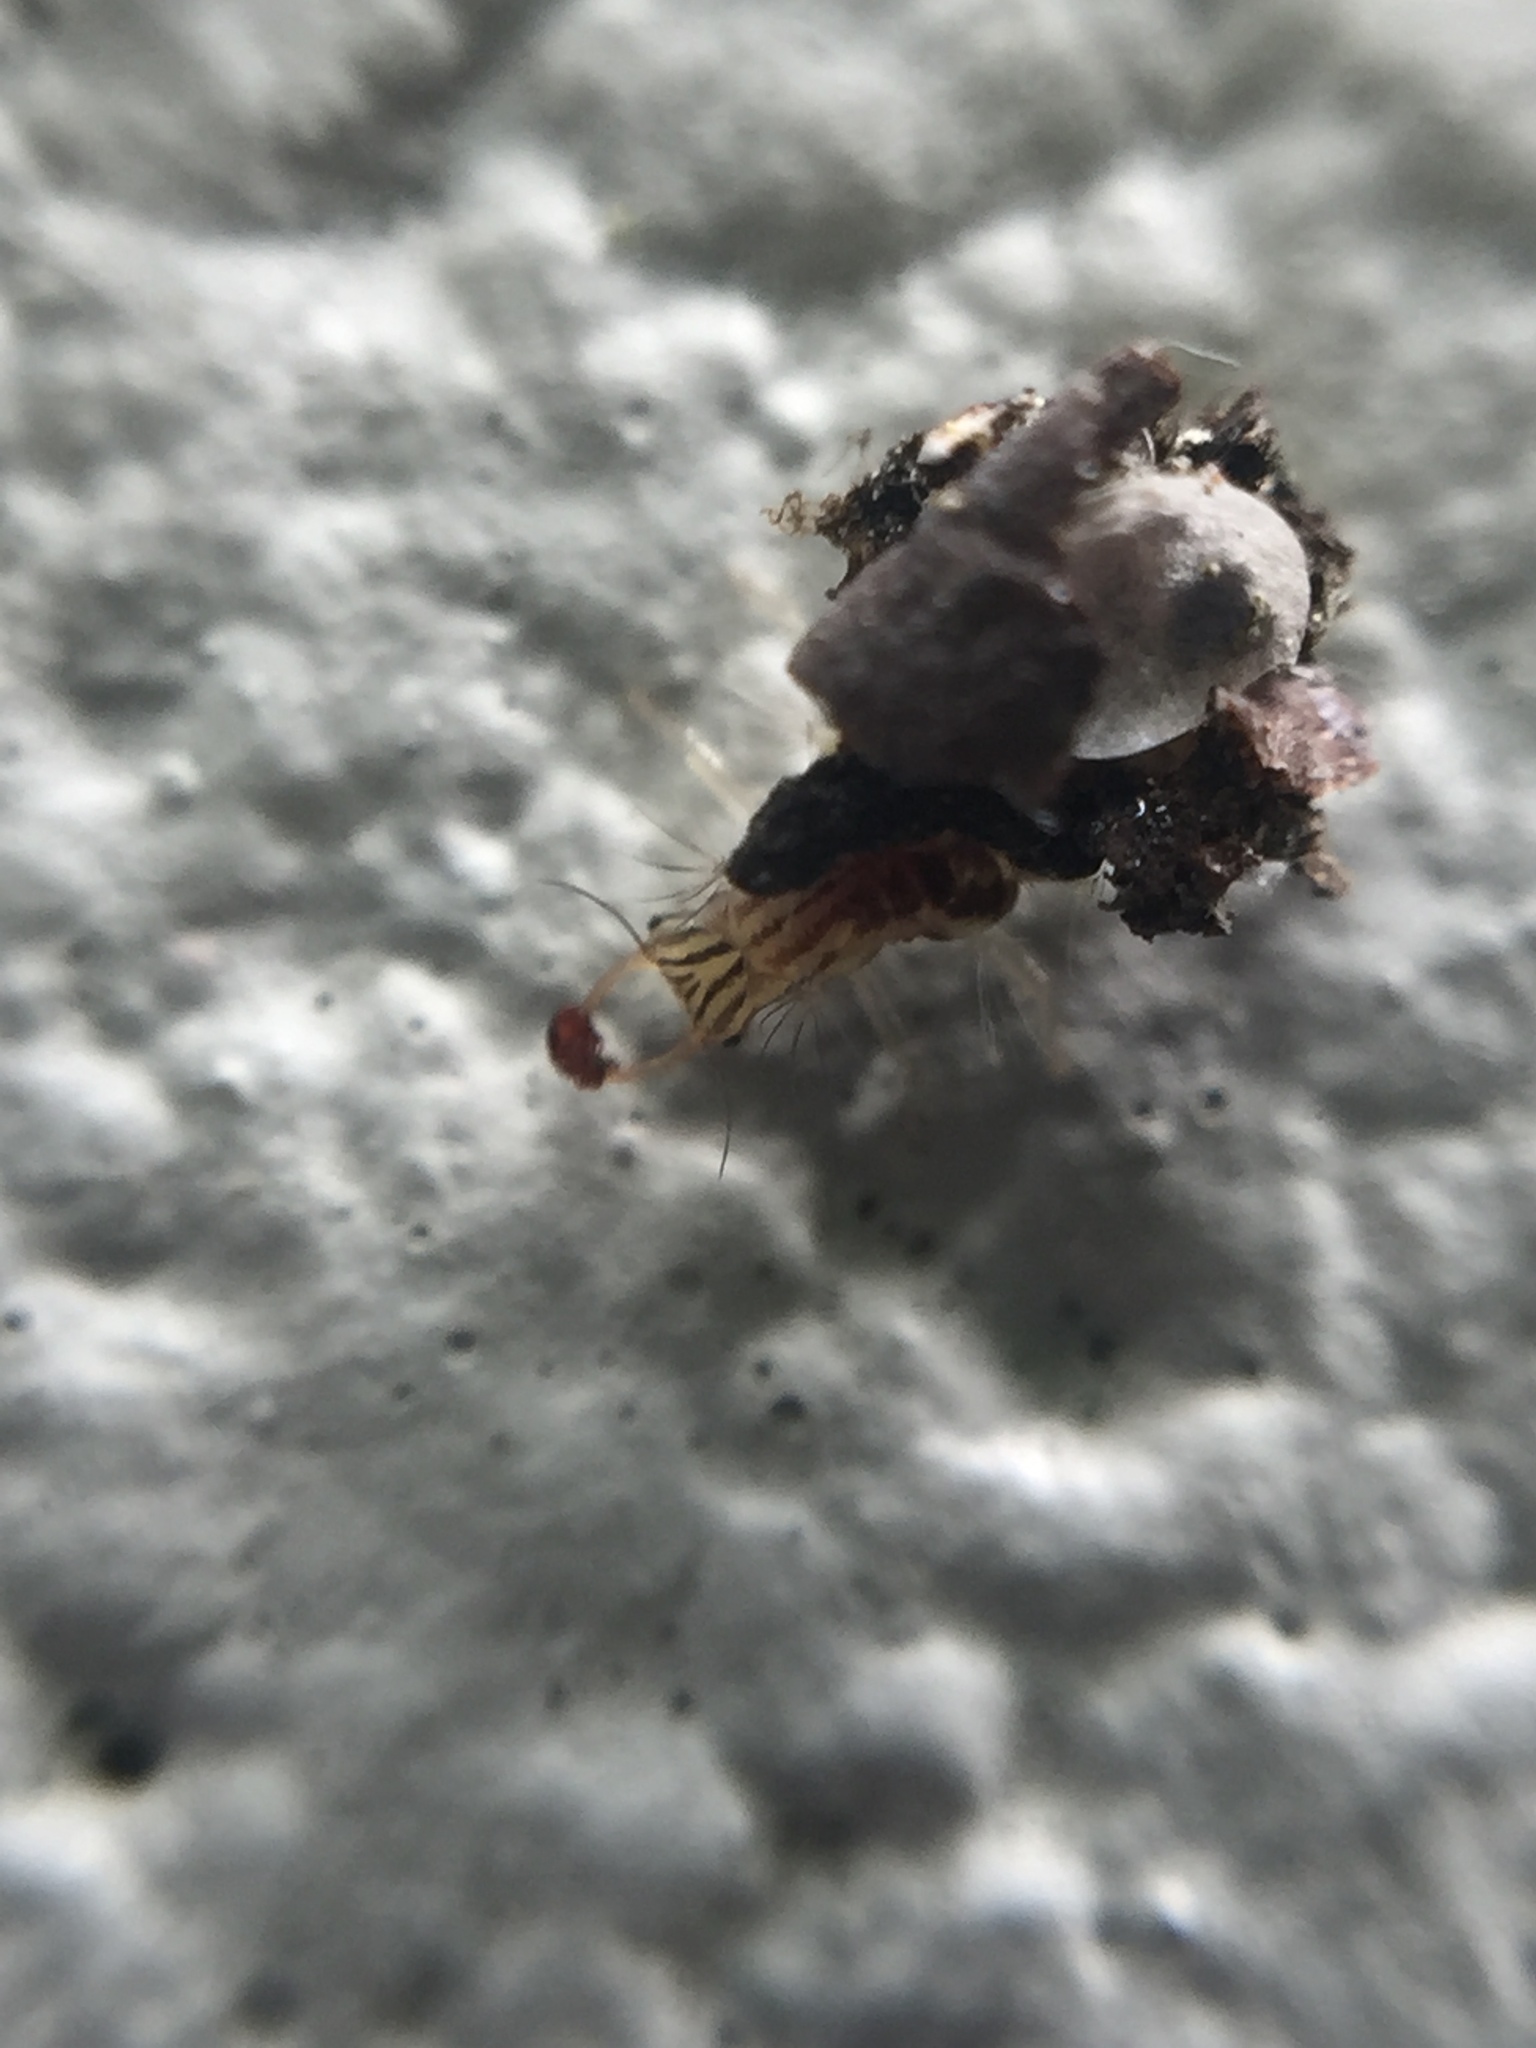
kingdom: Animalia
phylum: Arthropoda
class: Insecta
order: Neuroptera
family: Chrysopidae
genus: Mallada
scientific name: Mallada basalis
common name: Green lacewing
